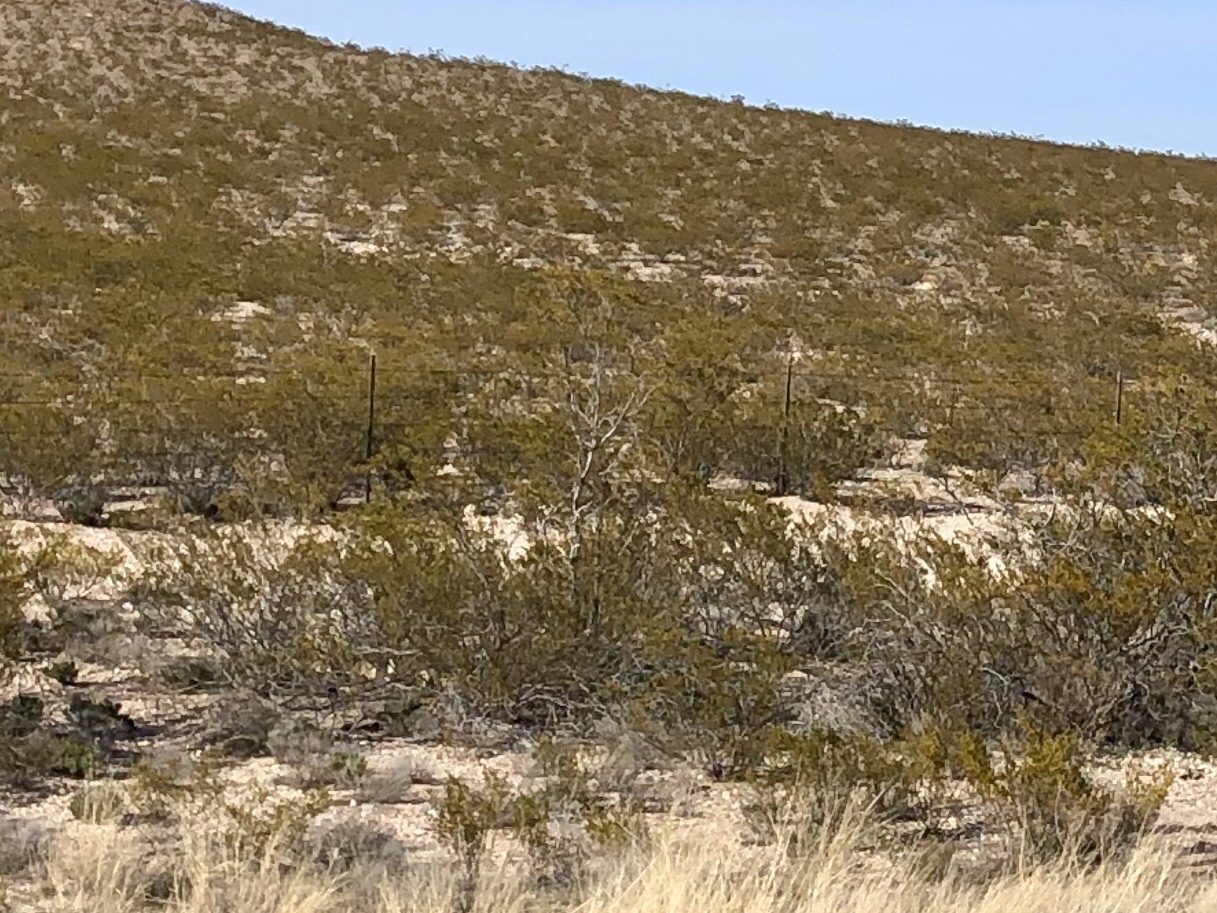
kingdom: Plantae
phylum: Tracheophyta
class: Magnoliopsida
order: Zygophyllales
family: Zygophyllaceae
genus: Larrea
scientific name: Larrea tridentata
